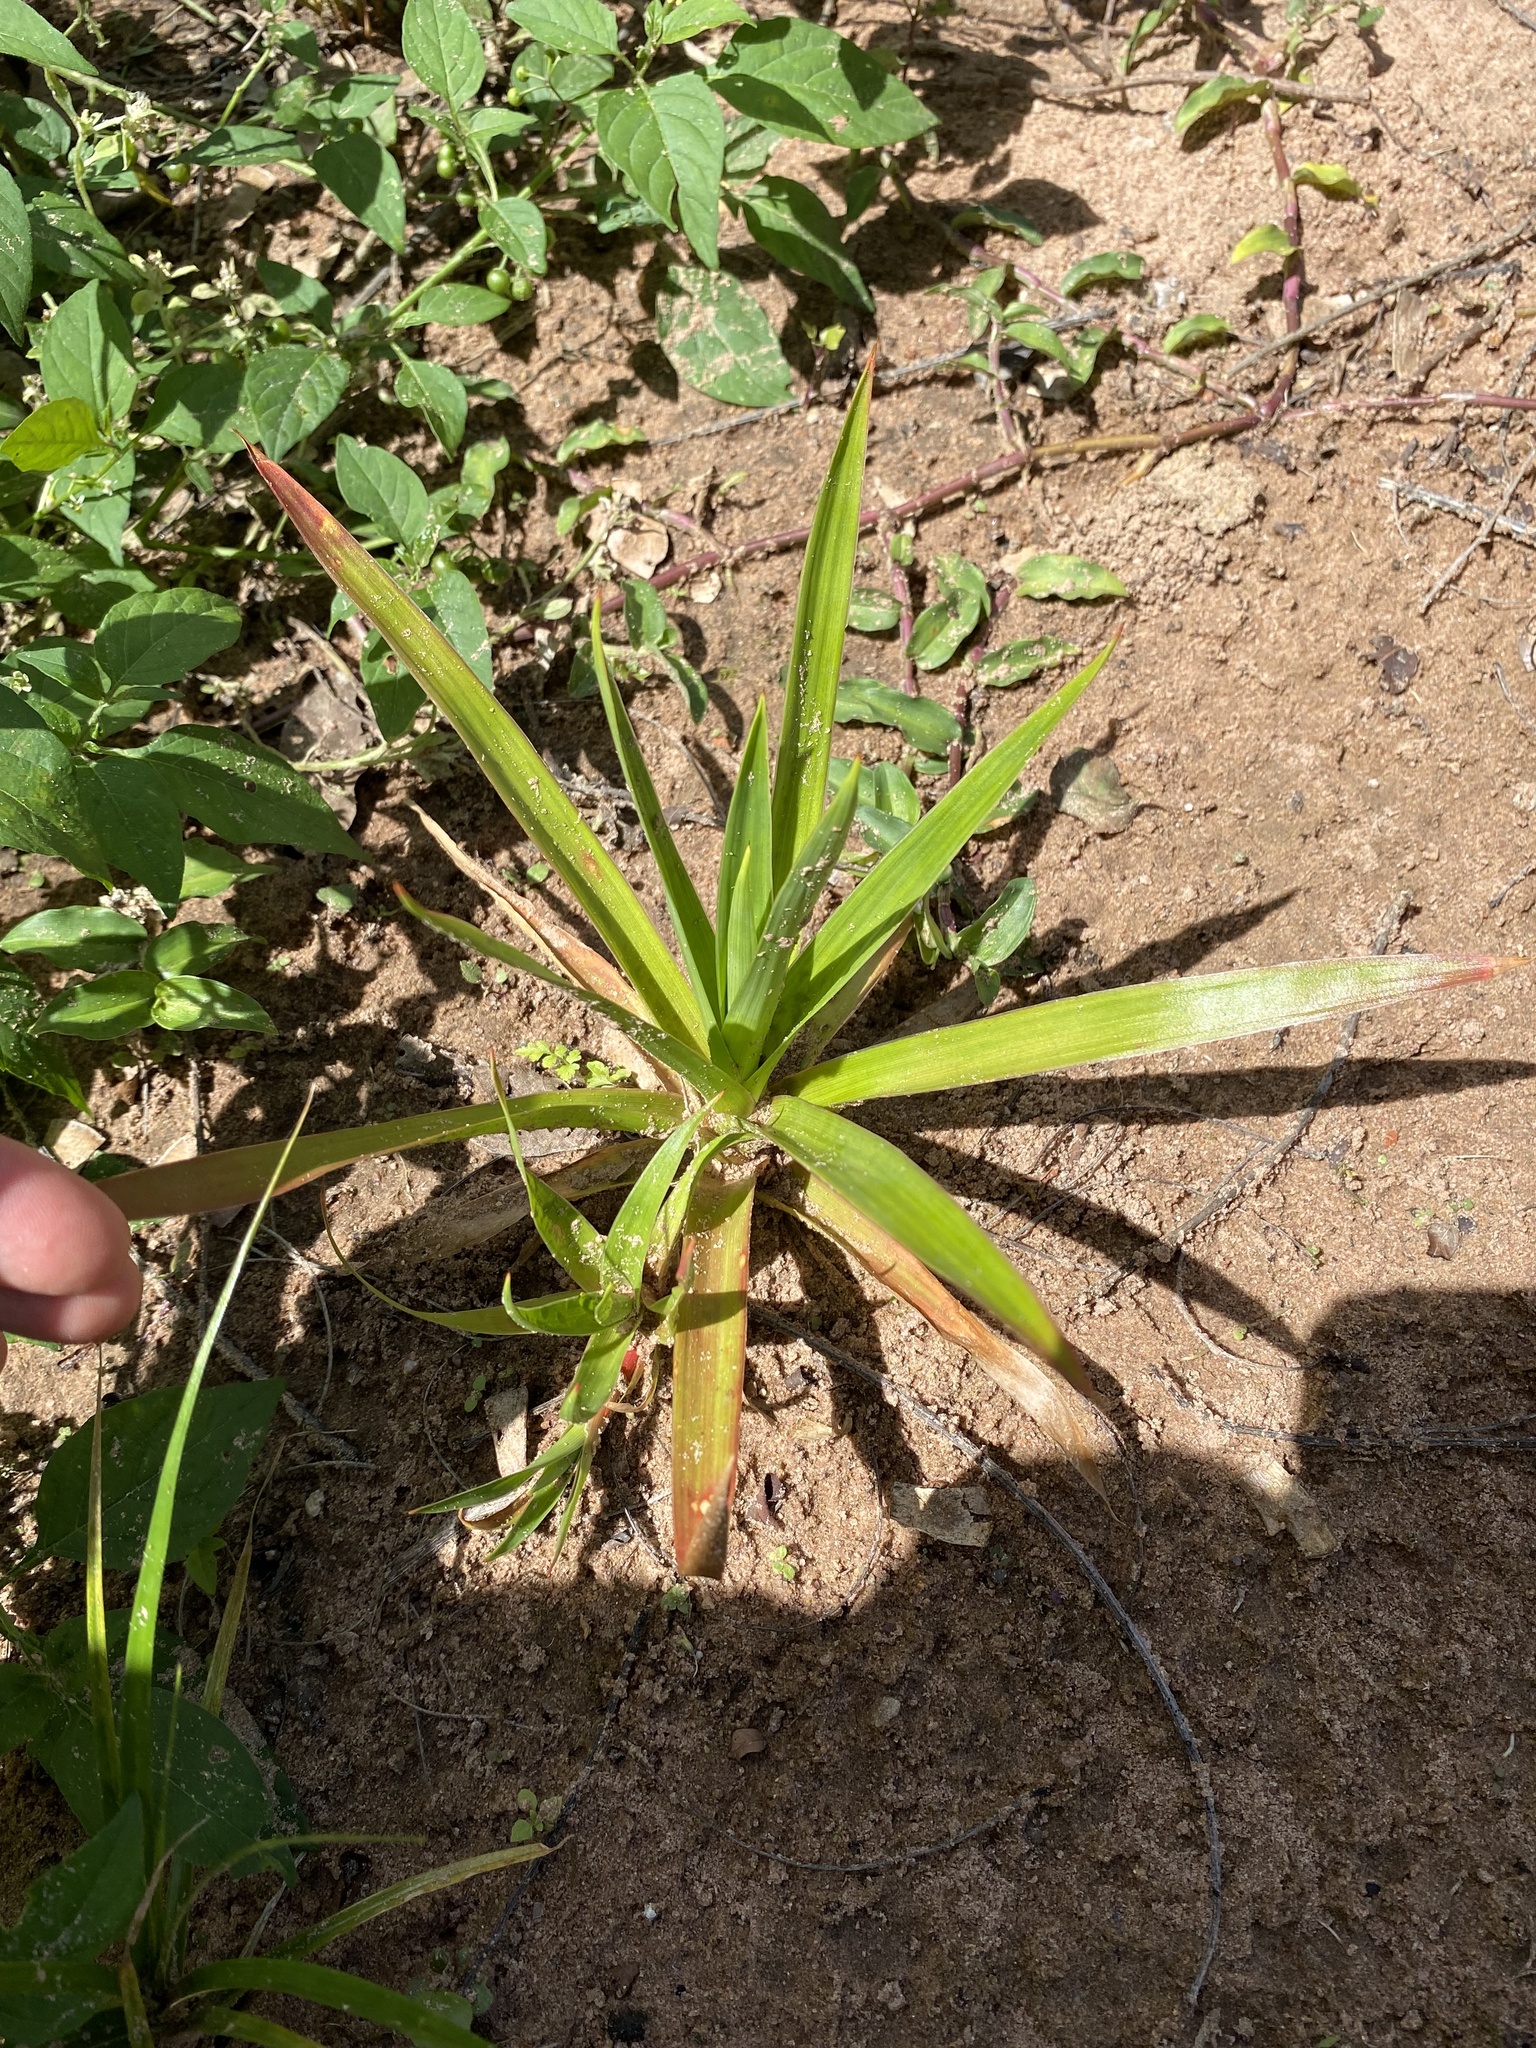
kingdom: Plantae
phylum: Tracheophyta
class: Liliopsida
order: Poales
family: Juncaceae
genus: Juncus
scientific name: Juncus lomatophyllus
